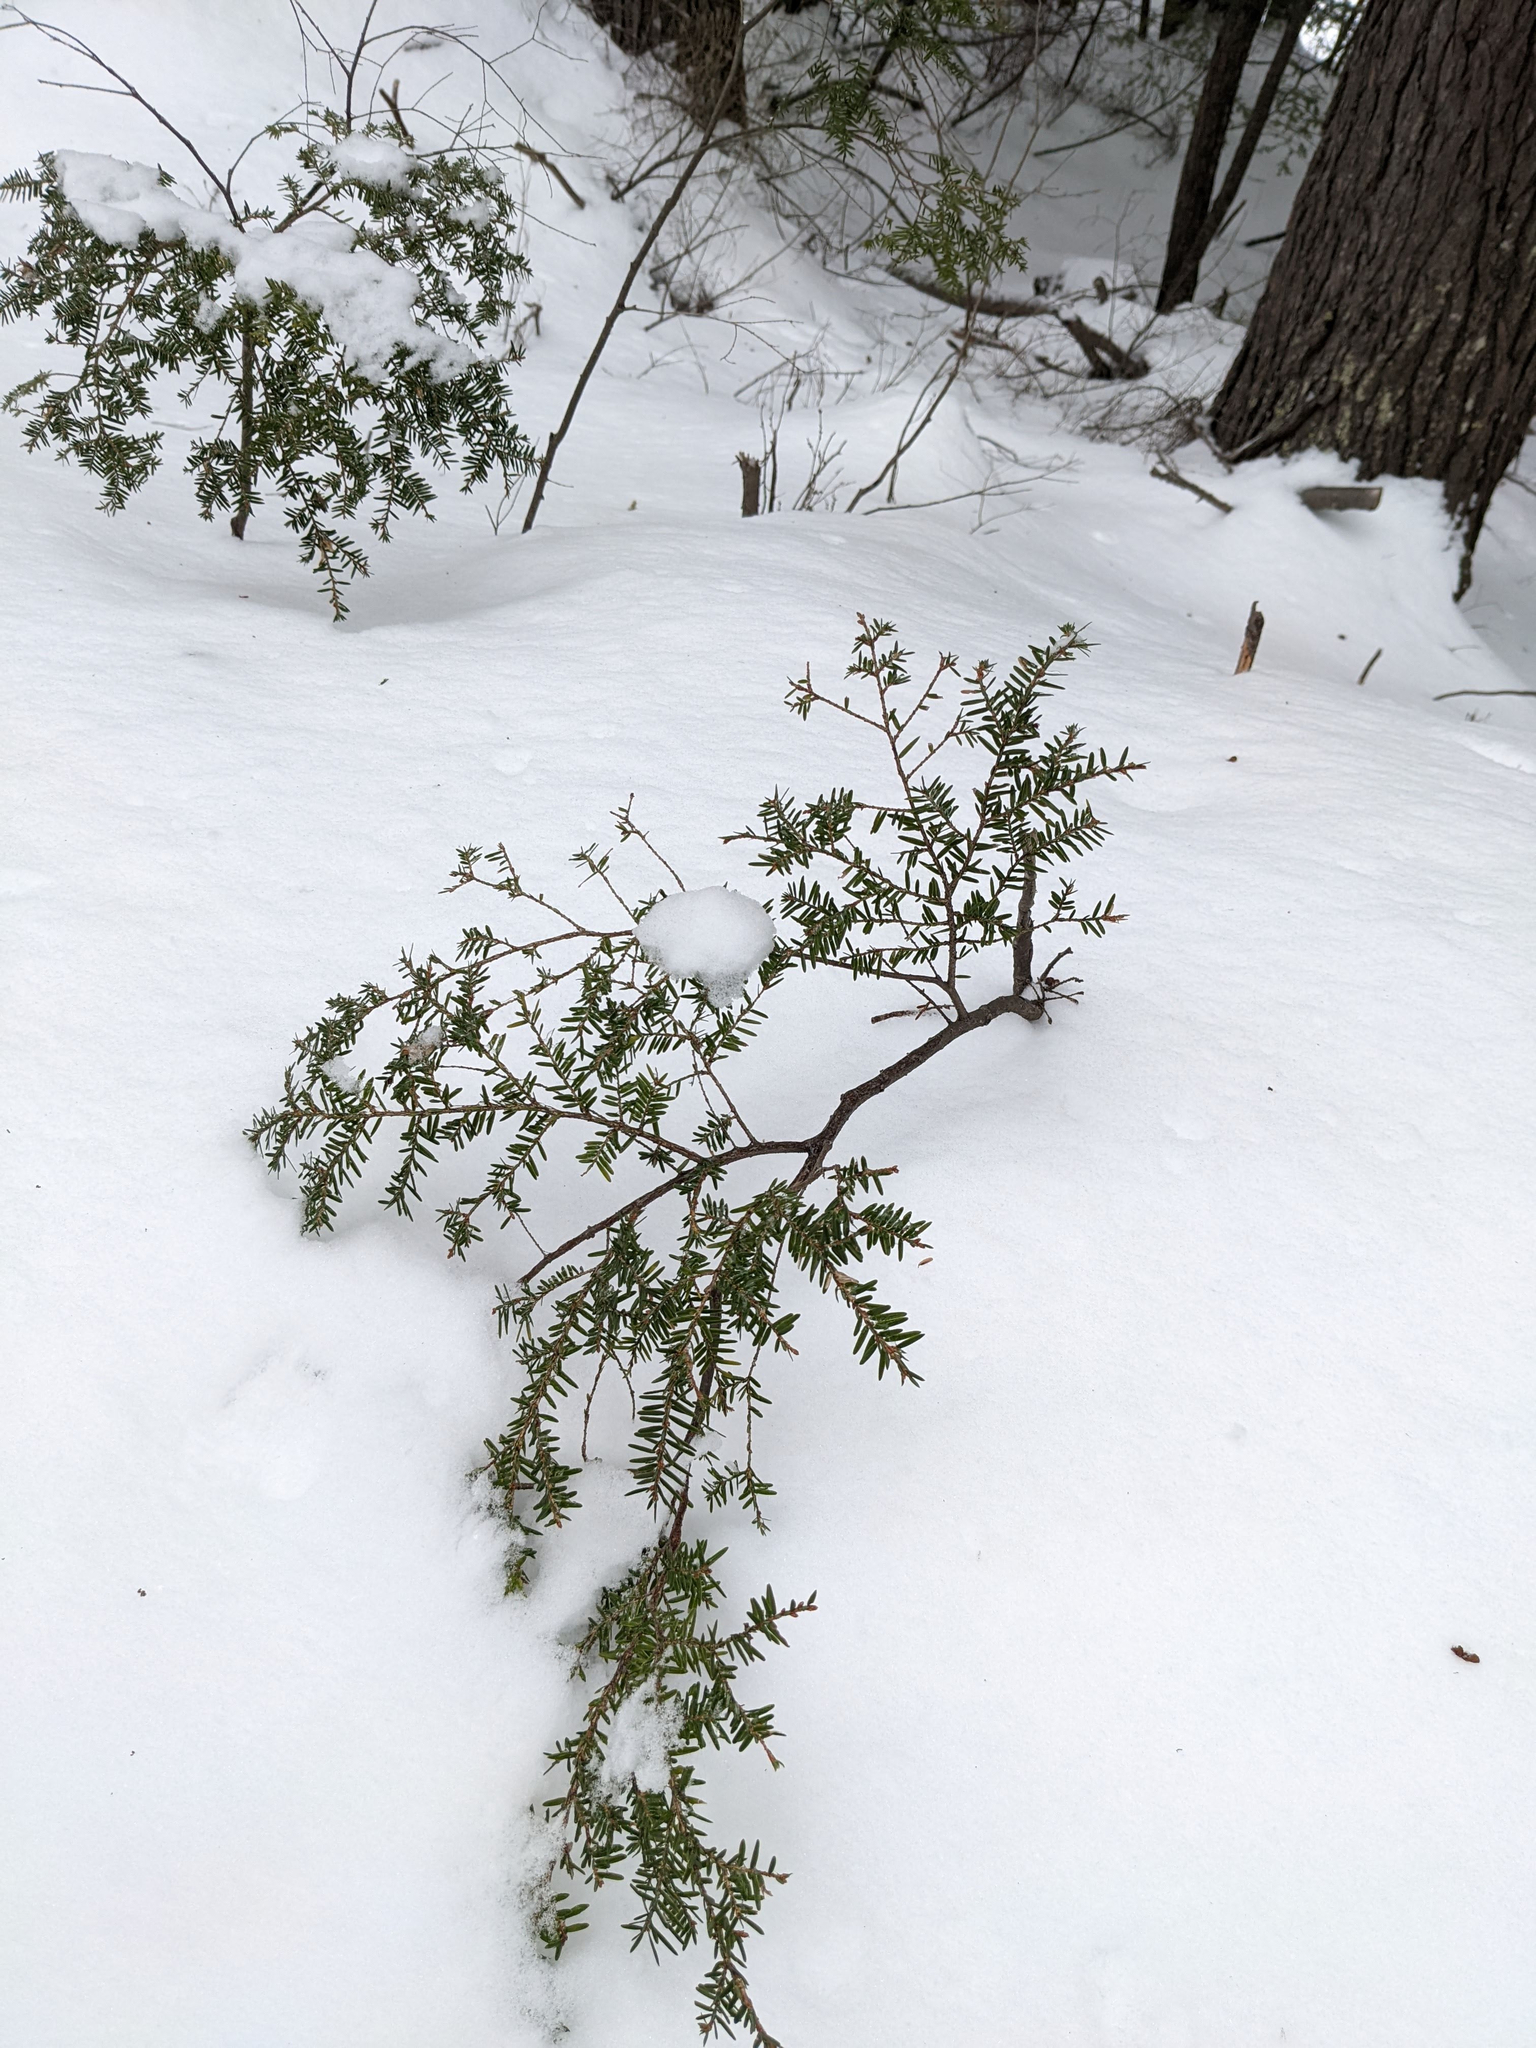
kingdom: Plantae
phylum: Tracheophyta
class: Pinopsida
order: Pinales
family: Pinaceae
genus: Tsuga
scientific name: Tsuga canadensis
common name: Eastern hemlock
